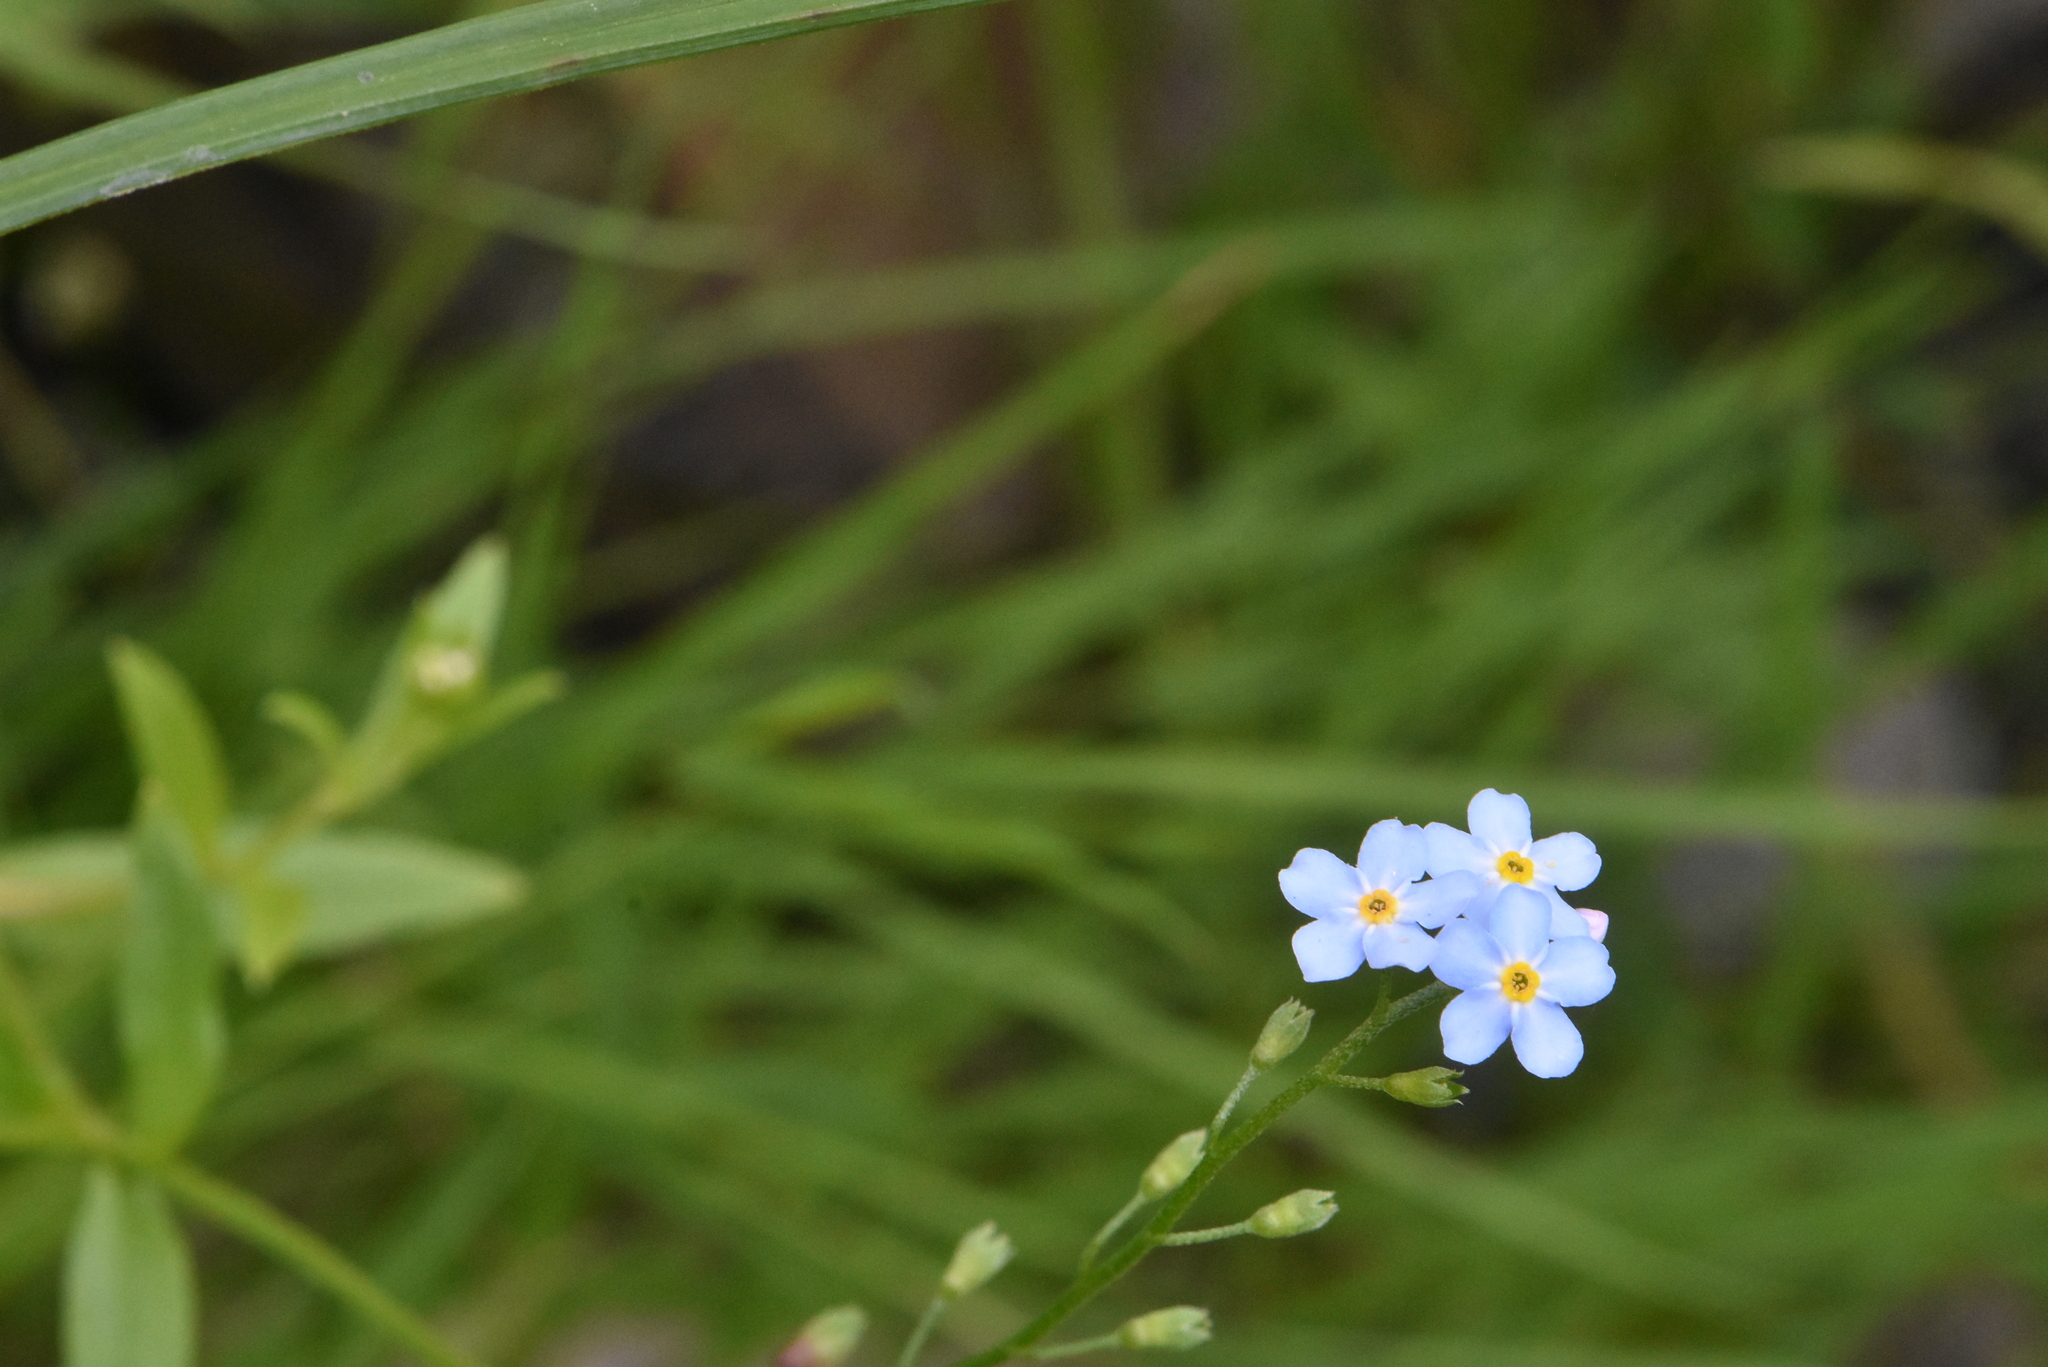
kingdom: Plantae
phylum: Tracheophyta
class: Magnoliopsida
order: Boraginales
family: Boraginaceae
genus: Myosotis
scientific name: Myosotis scorpioides
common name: Water forget-me-not
